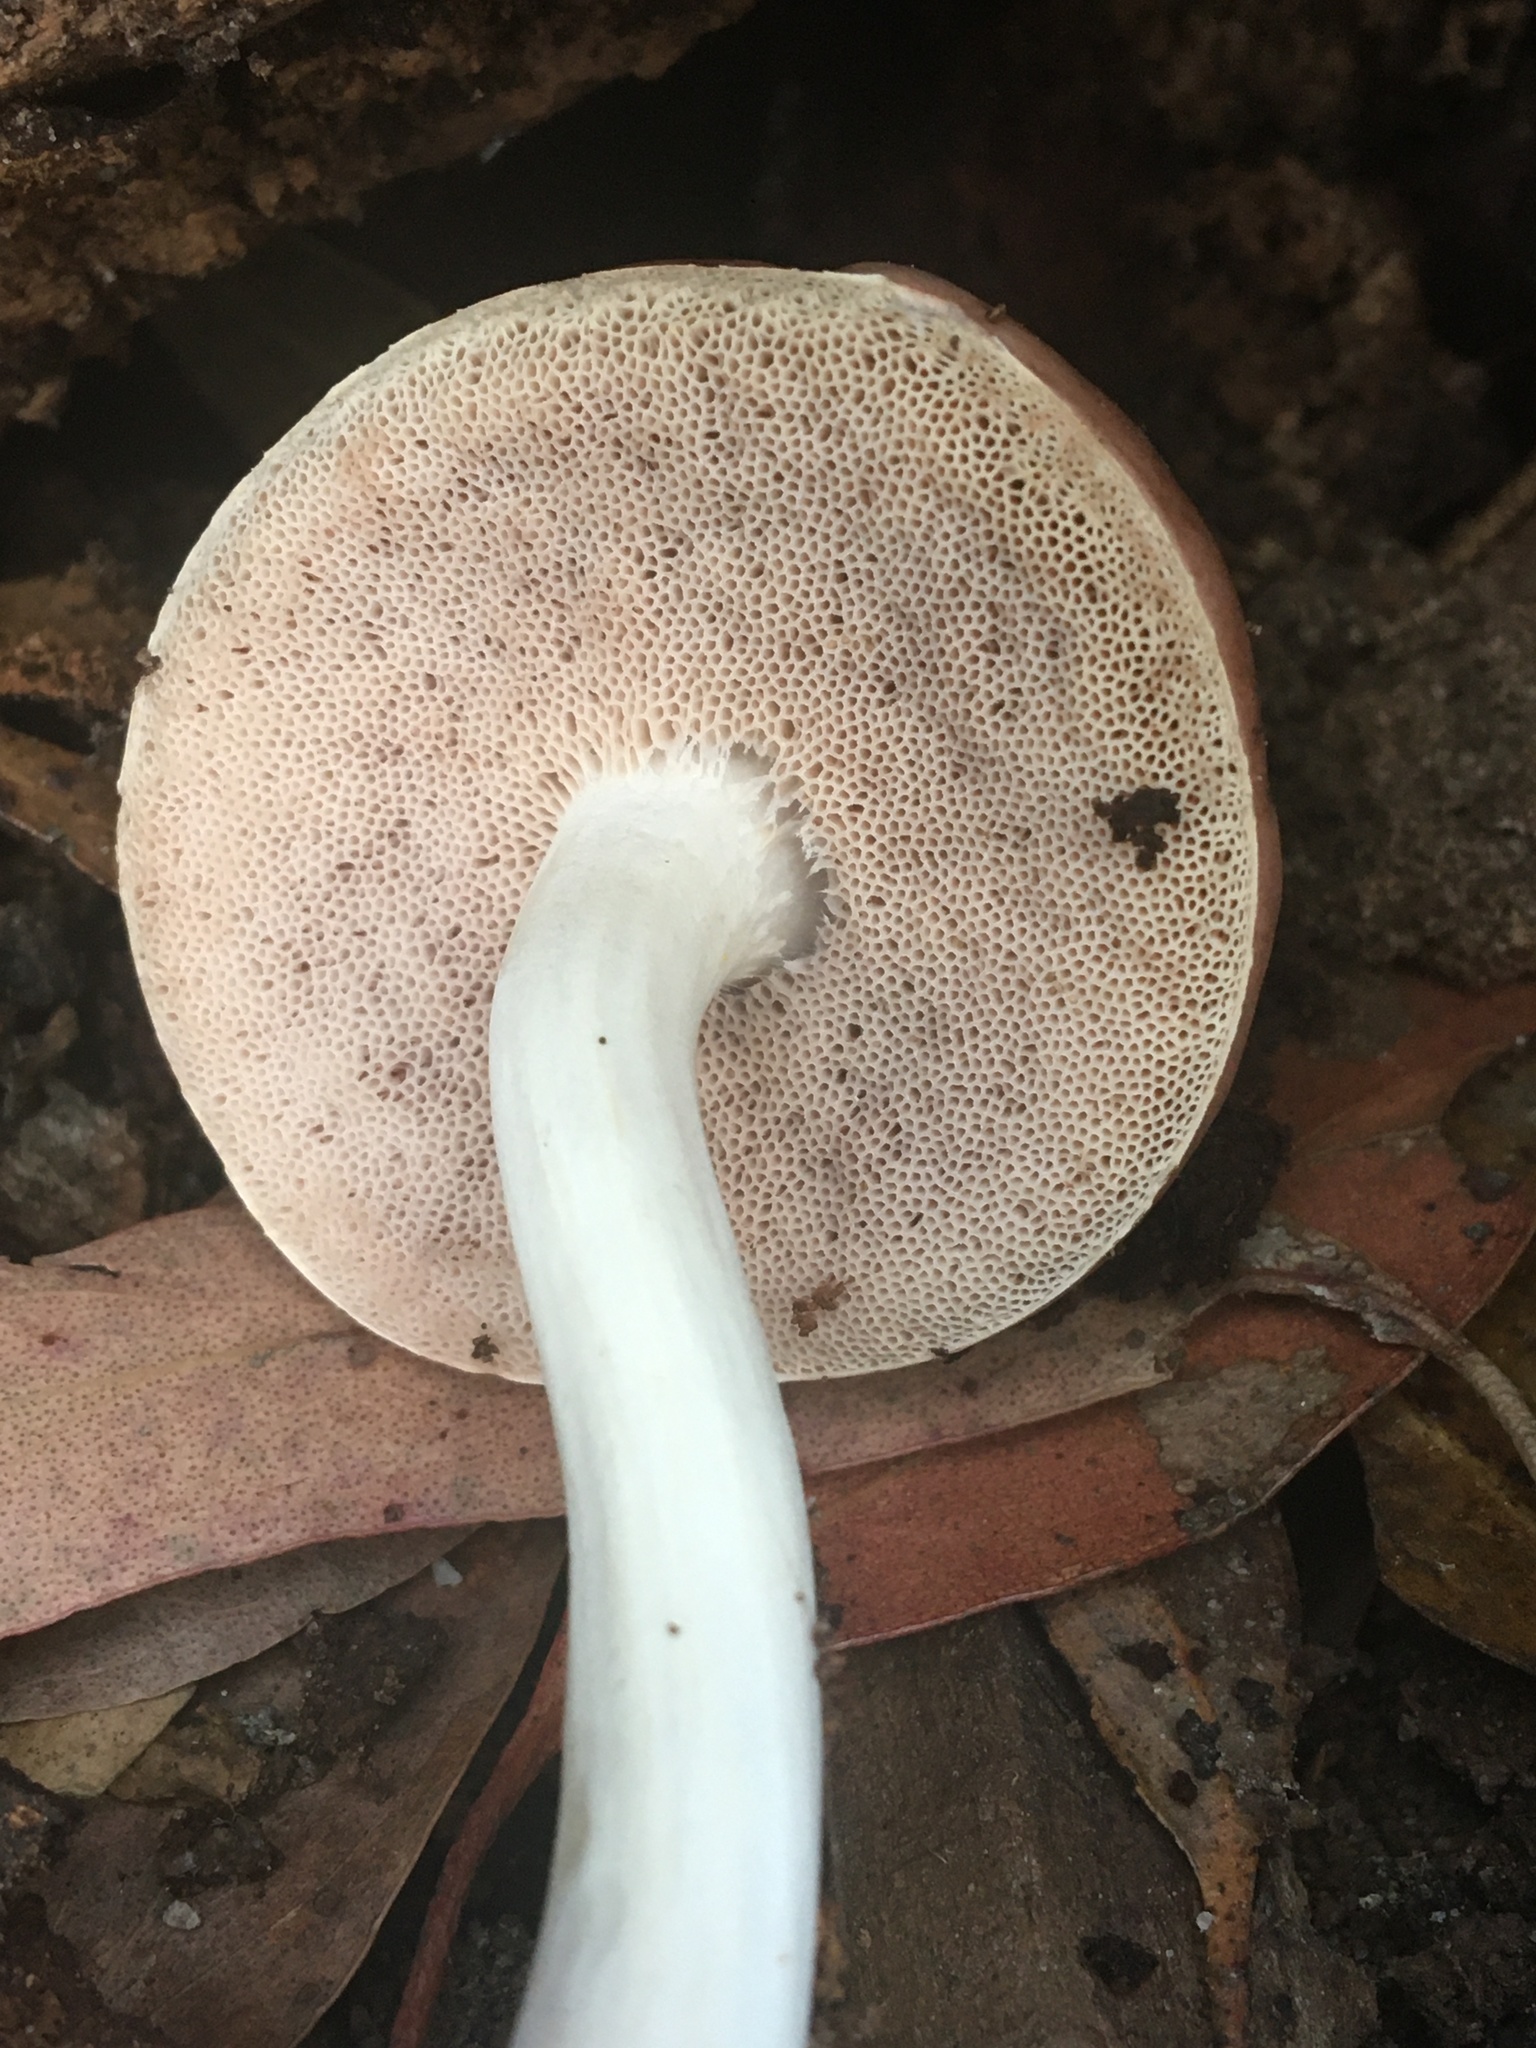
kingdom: Fungi
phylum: Basidiomycota
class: Agaricomycetes
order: Boletales
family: Boletaceae
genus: Fistulinella
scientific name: Fistulinella mollis
